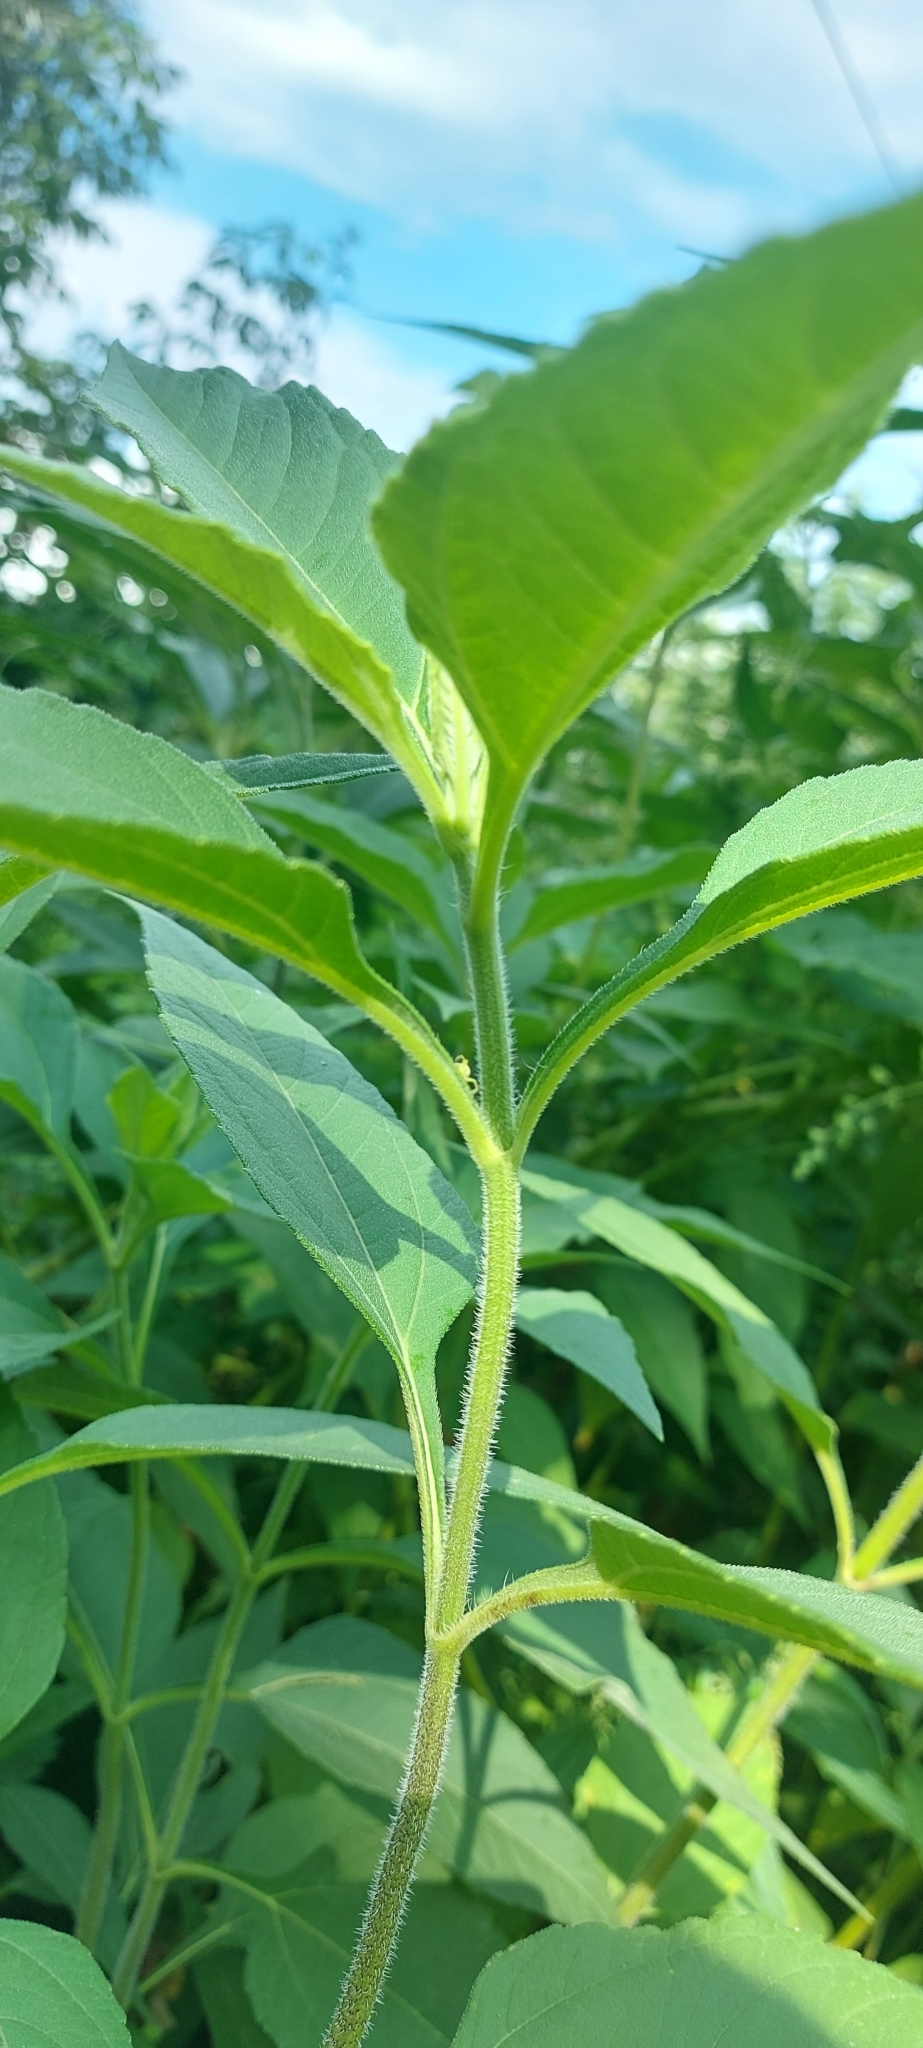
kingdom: Plantae
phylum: Tracheophyta
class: Magnoliopsida
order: Asterales
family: Asteraceae
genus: Helianthus
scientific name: Helianthus tuberosus
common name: Jerusalem artichoke
